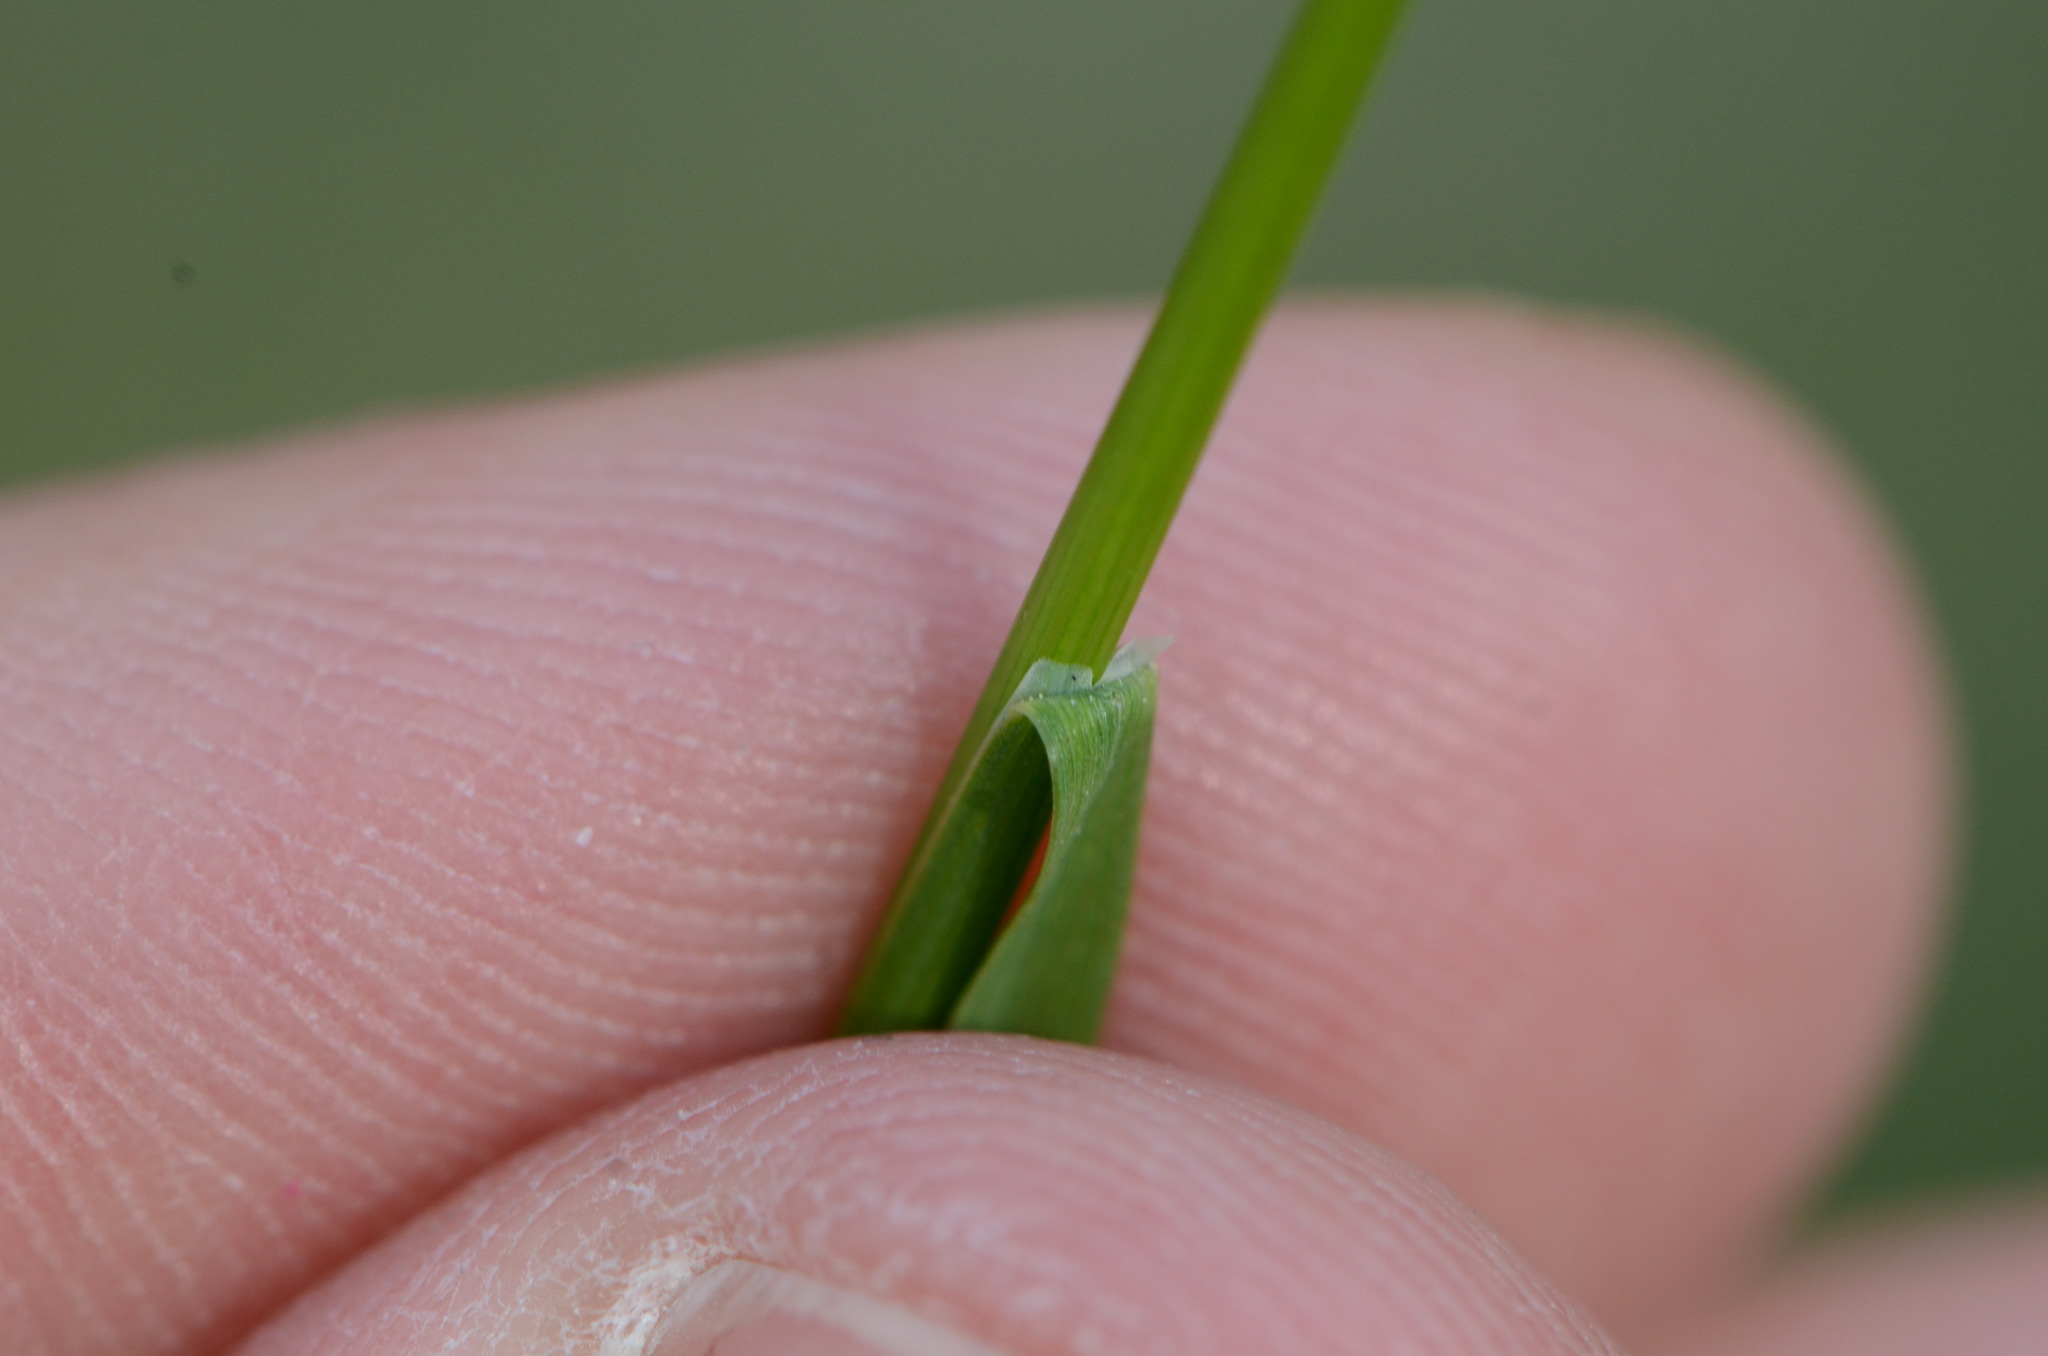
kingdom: Plantae
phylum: Tracheophyta
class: Liliopsida
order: Poales
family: Poaceae
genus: Poa
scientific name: Poa pratensis
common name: Kentucky bluegrass
